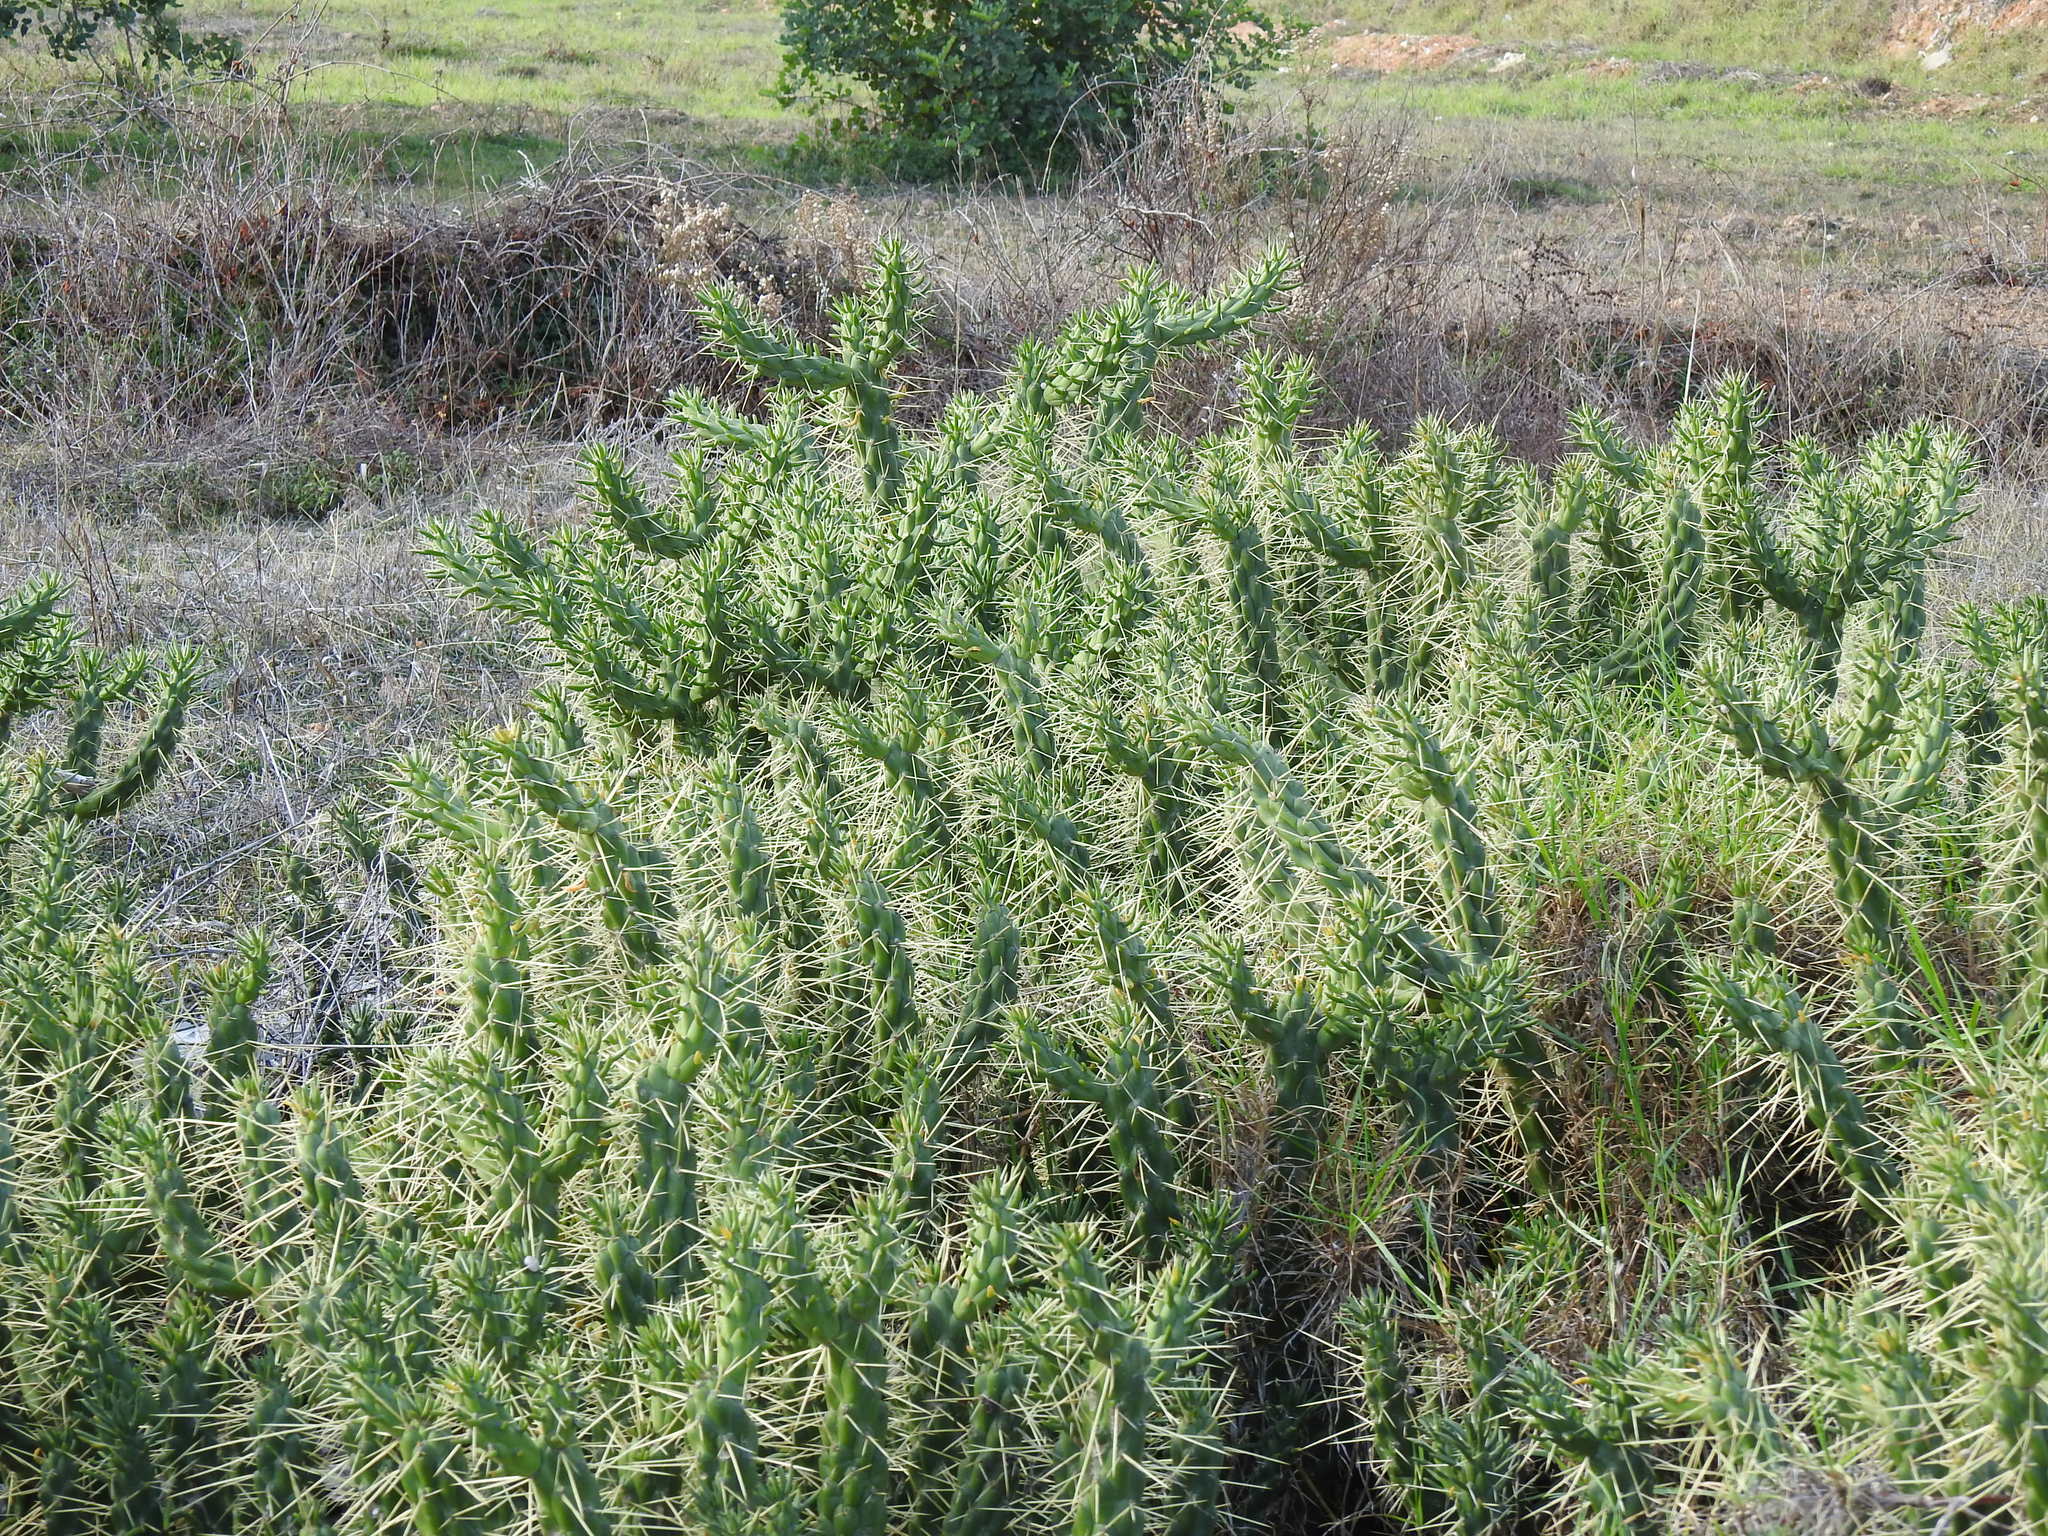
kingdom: Plantae
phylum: Tracheophyta
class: Magnoliopsida
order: Caryophyllales
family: Cactaceae
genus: Austrocylindropuntia
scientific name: Austrocylindropuntia subulata
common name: Eve's needle cactus
